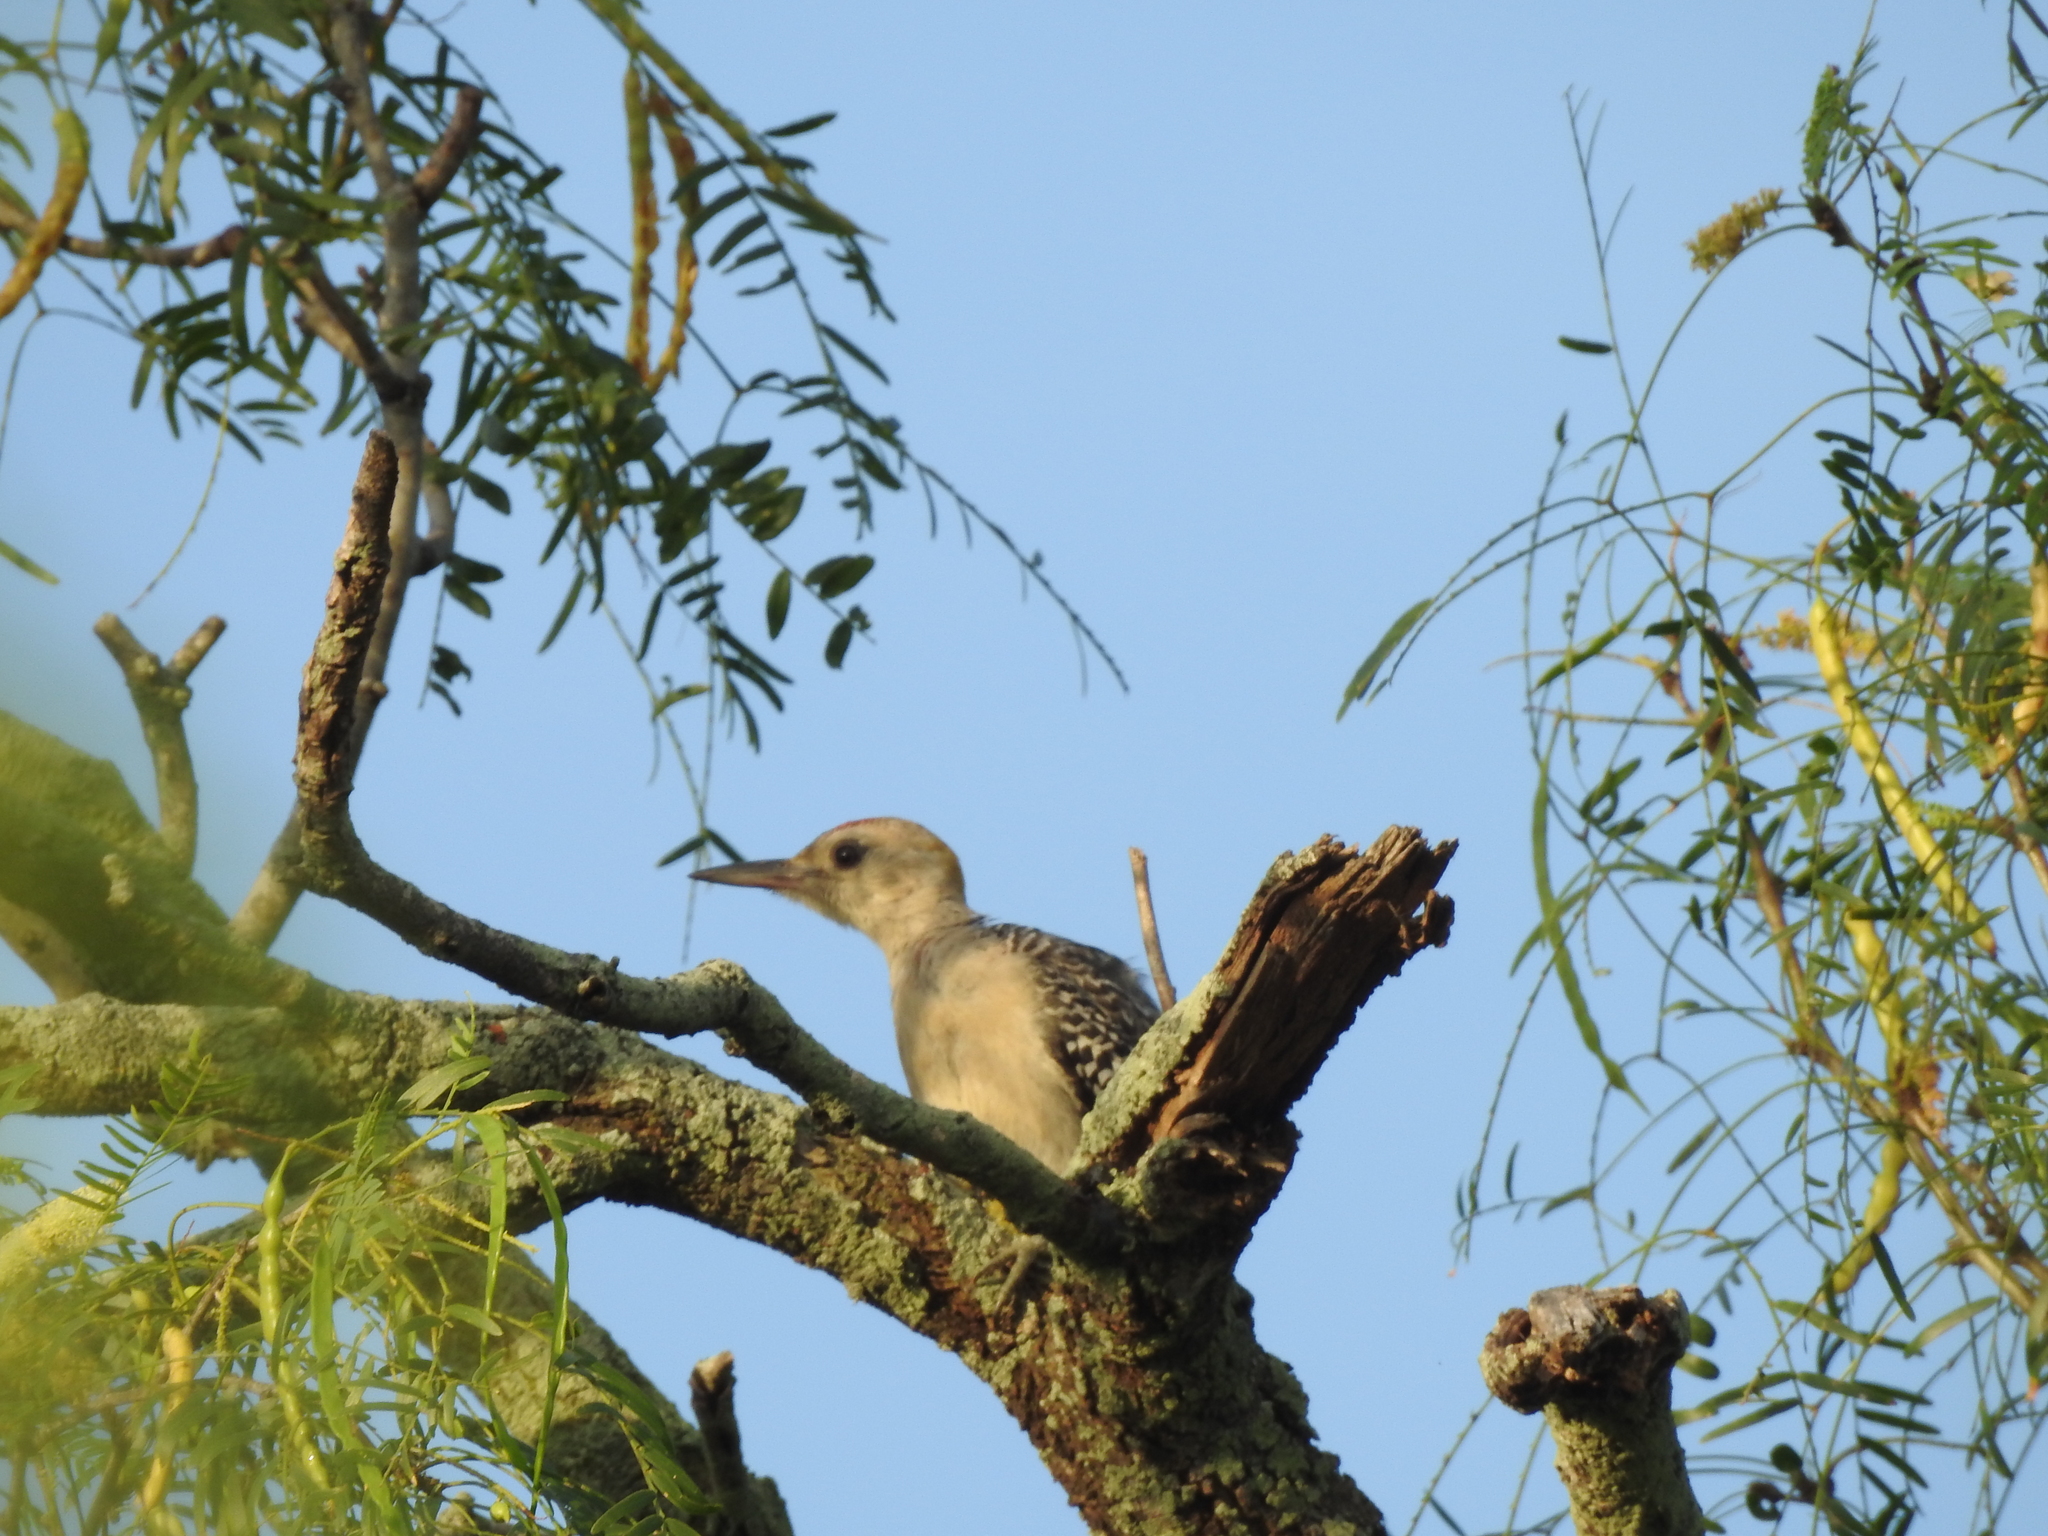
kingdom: Animalia
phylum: Chordata
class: Aves
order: Piciformes
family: Picidae
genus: Melanerpes
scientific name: Melanerpes aurifrons
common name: Golden-fronted woodpecker
